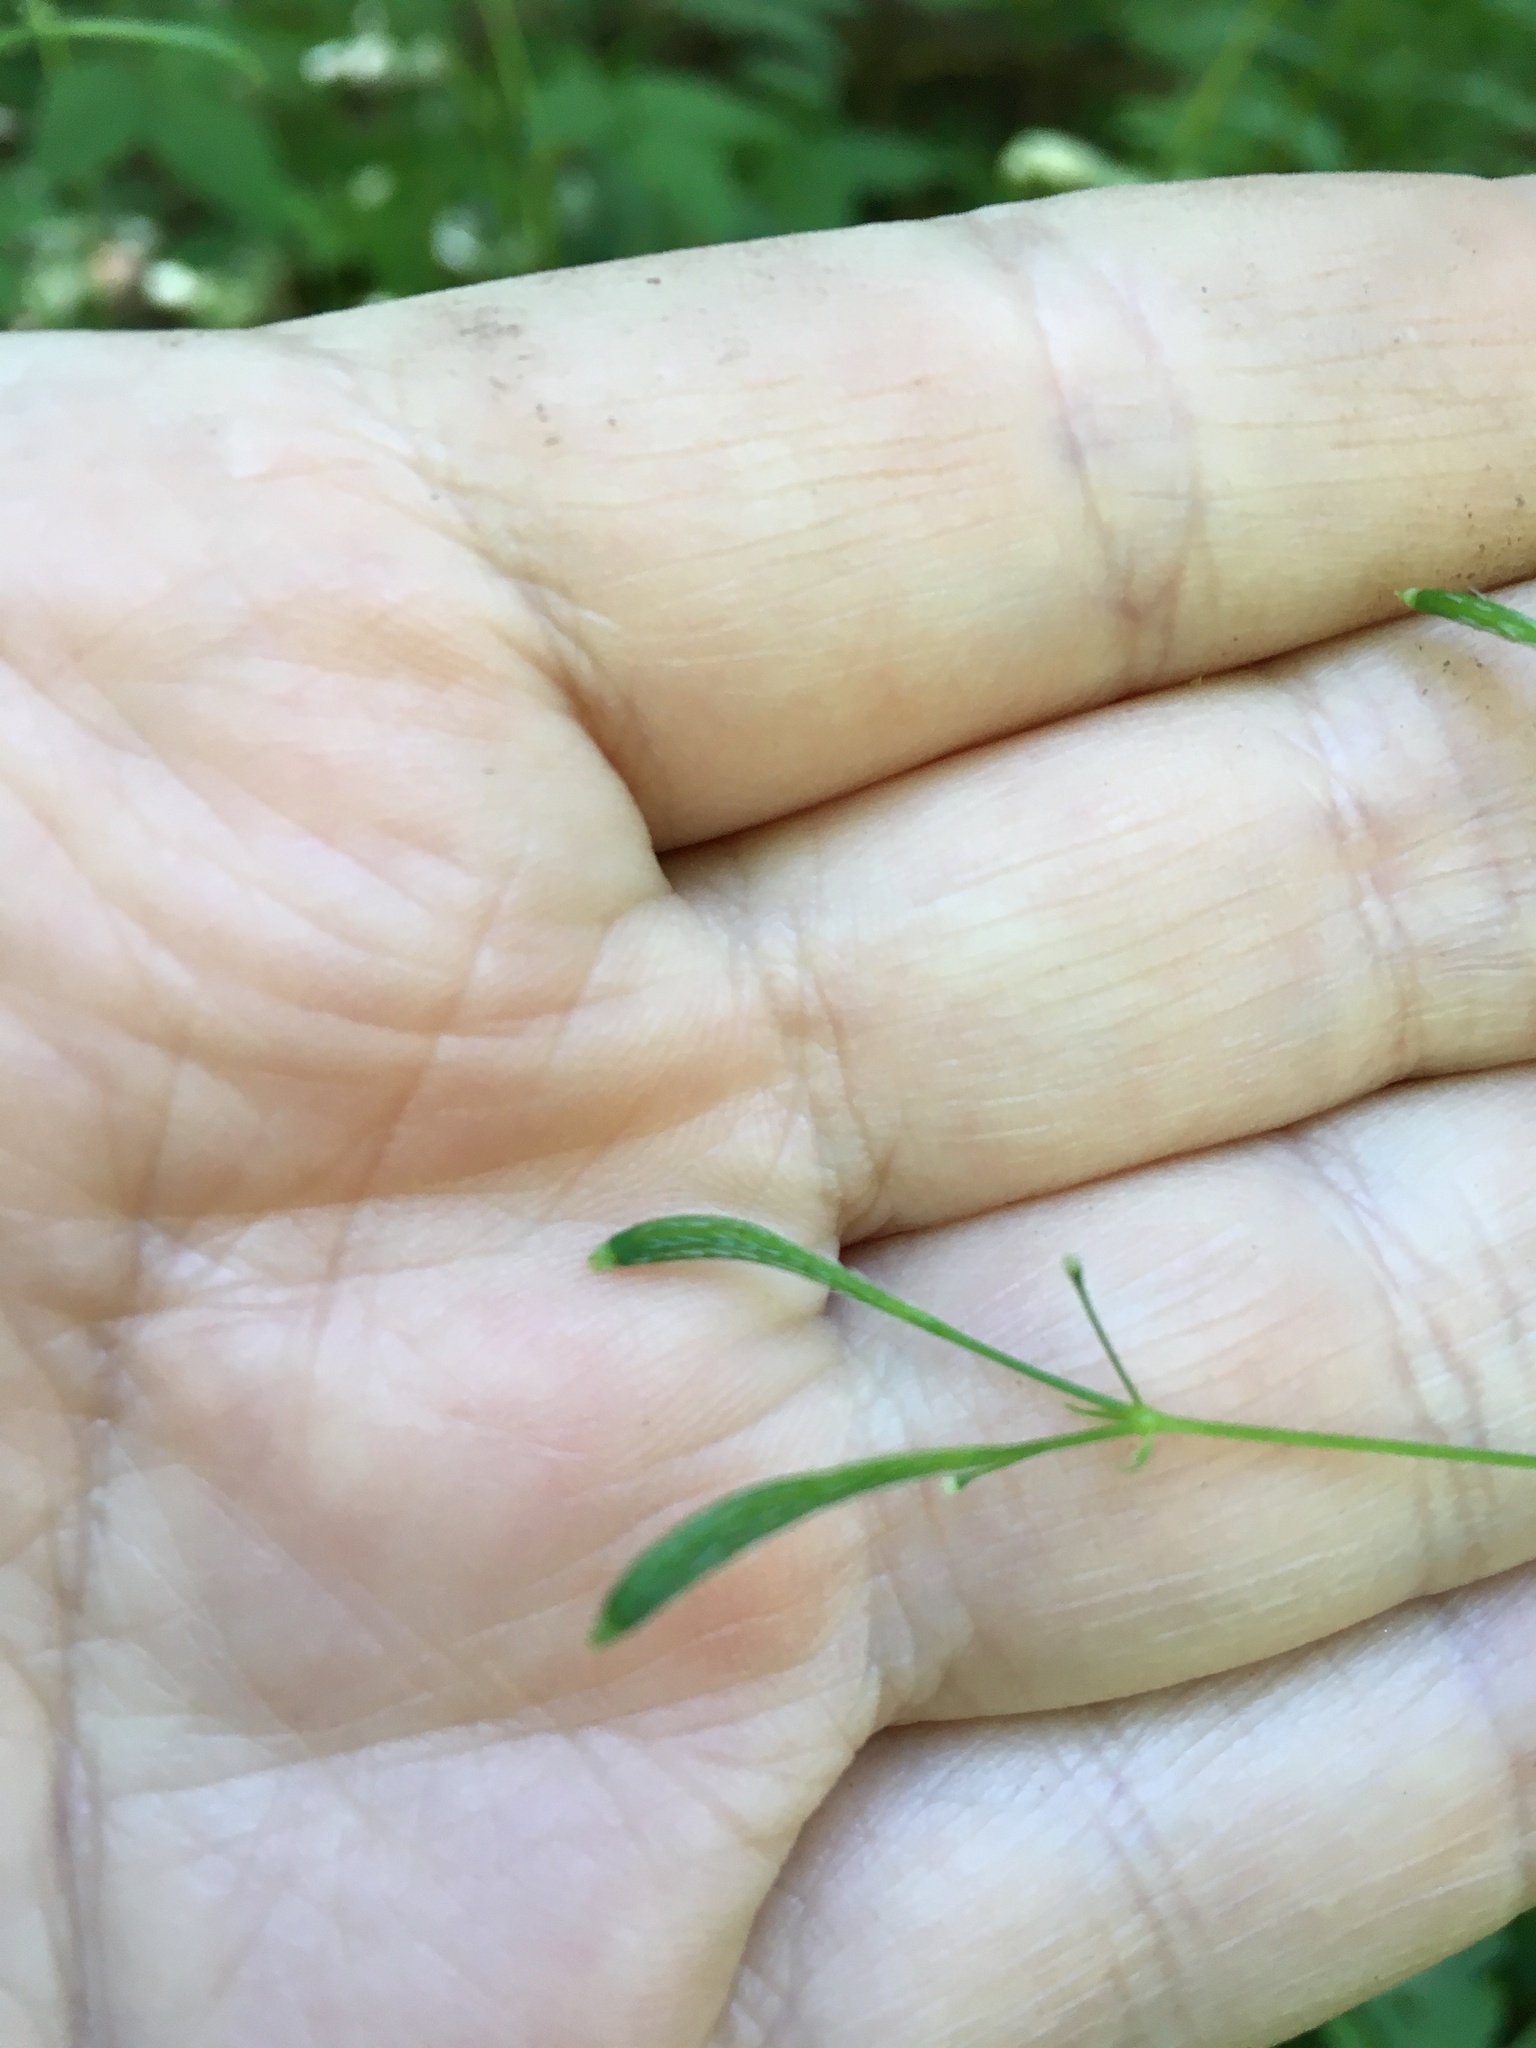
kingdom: Plantae
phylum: Tracheophyta
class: Magnoliopsida
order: Apiales
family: Apiaceae
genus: Osmorhiza
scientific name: Osmorhiza claytonii
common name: Hairy sweet cicely
